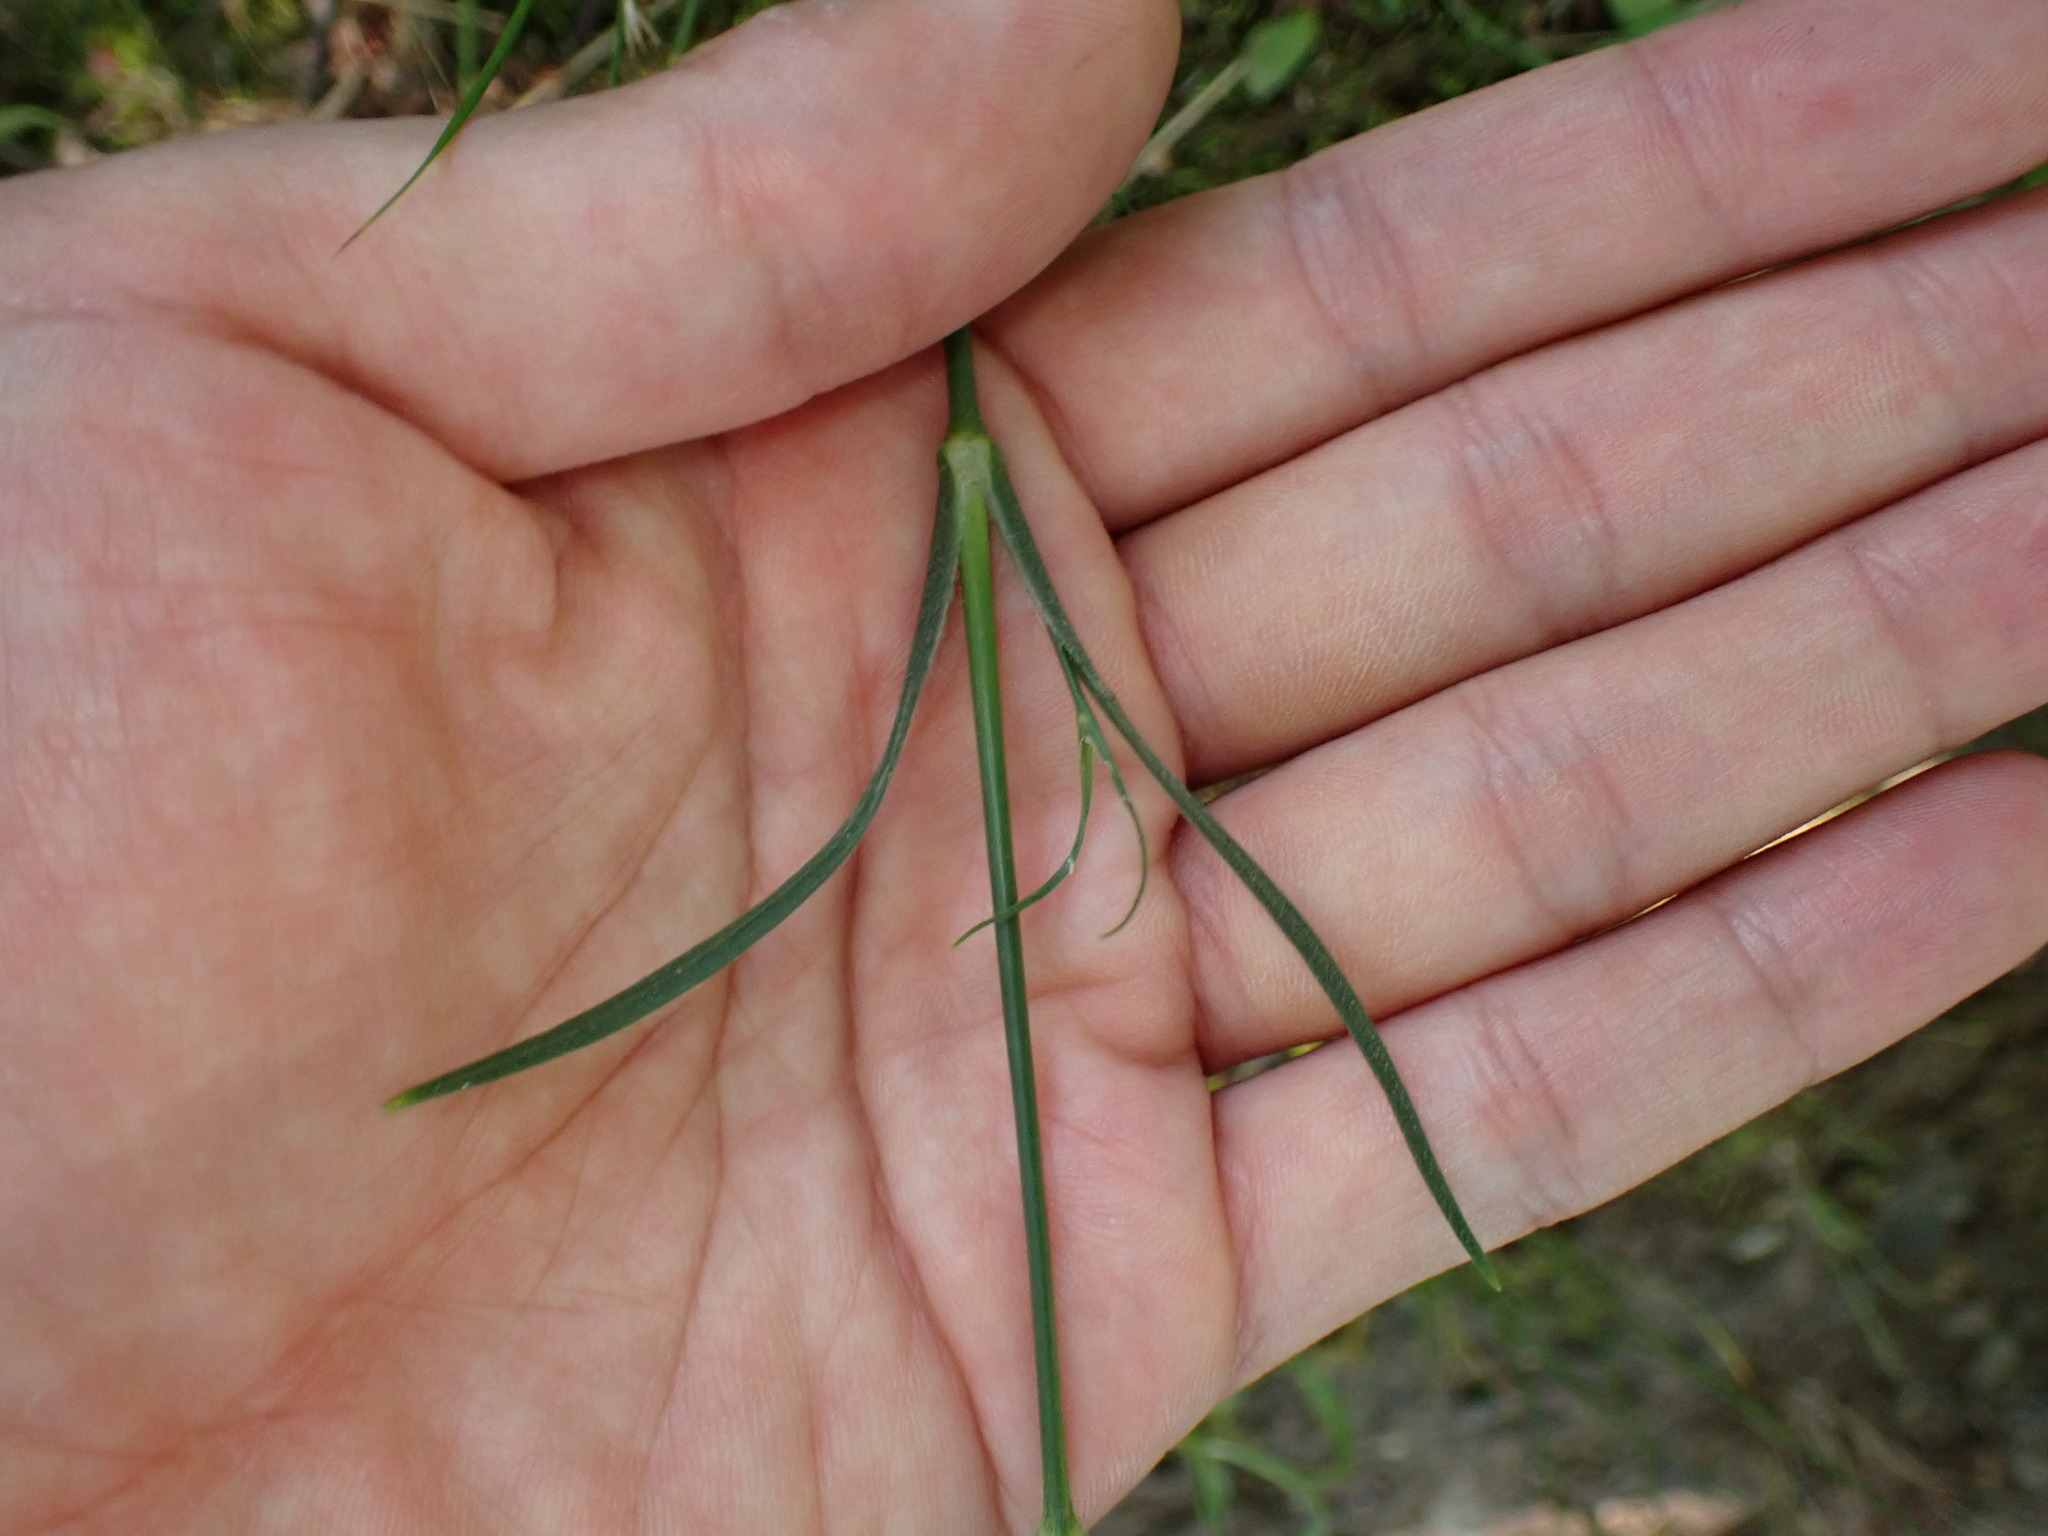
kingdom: Plantae
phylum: Tracheophyta
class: Magnoliopsida
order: Caryophyllales
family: Caryophyllaceae
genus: Dianthus
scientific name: Dianthus armeria
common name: Deptford pink
